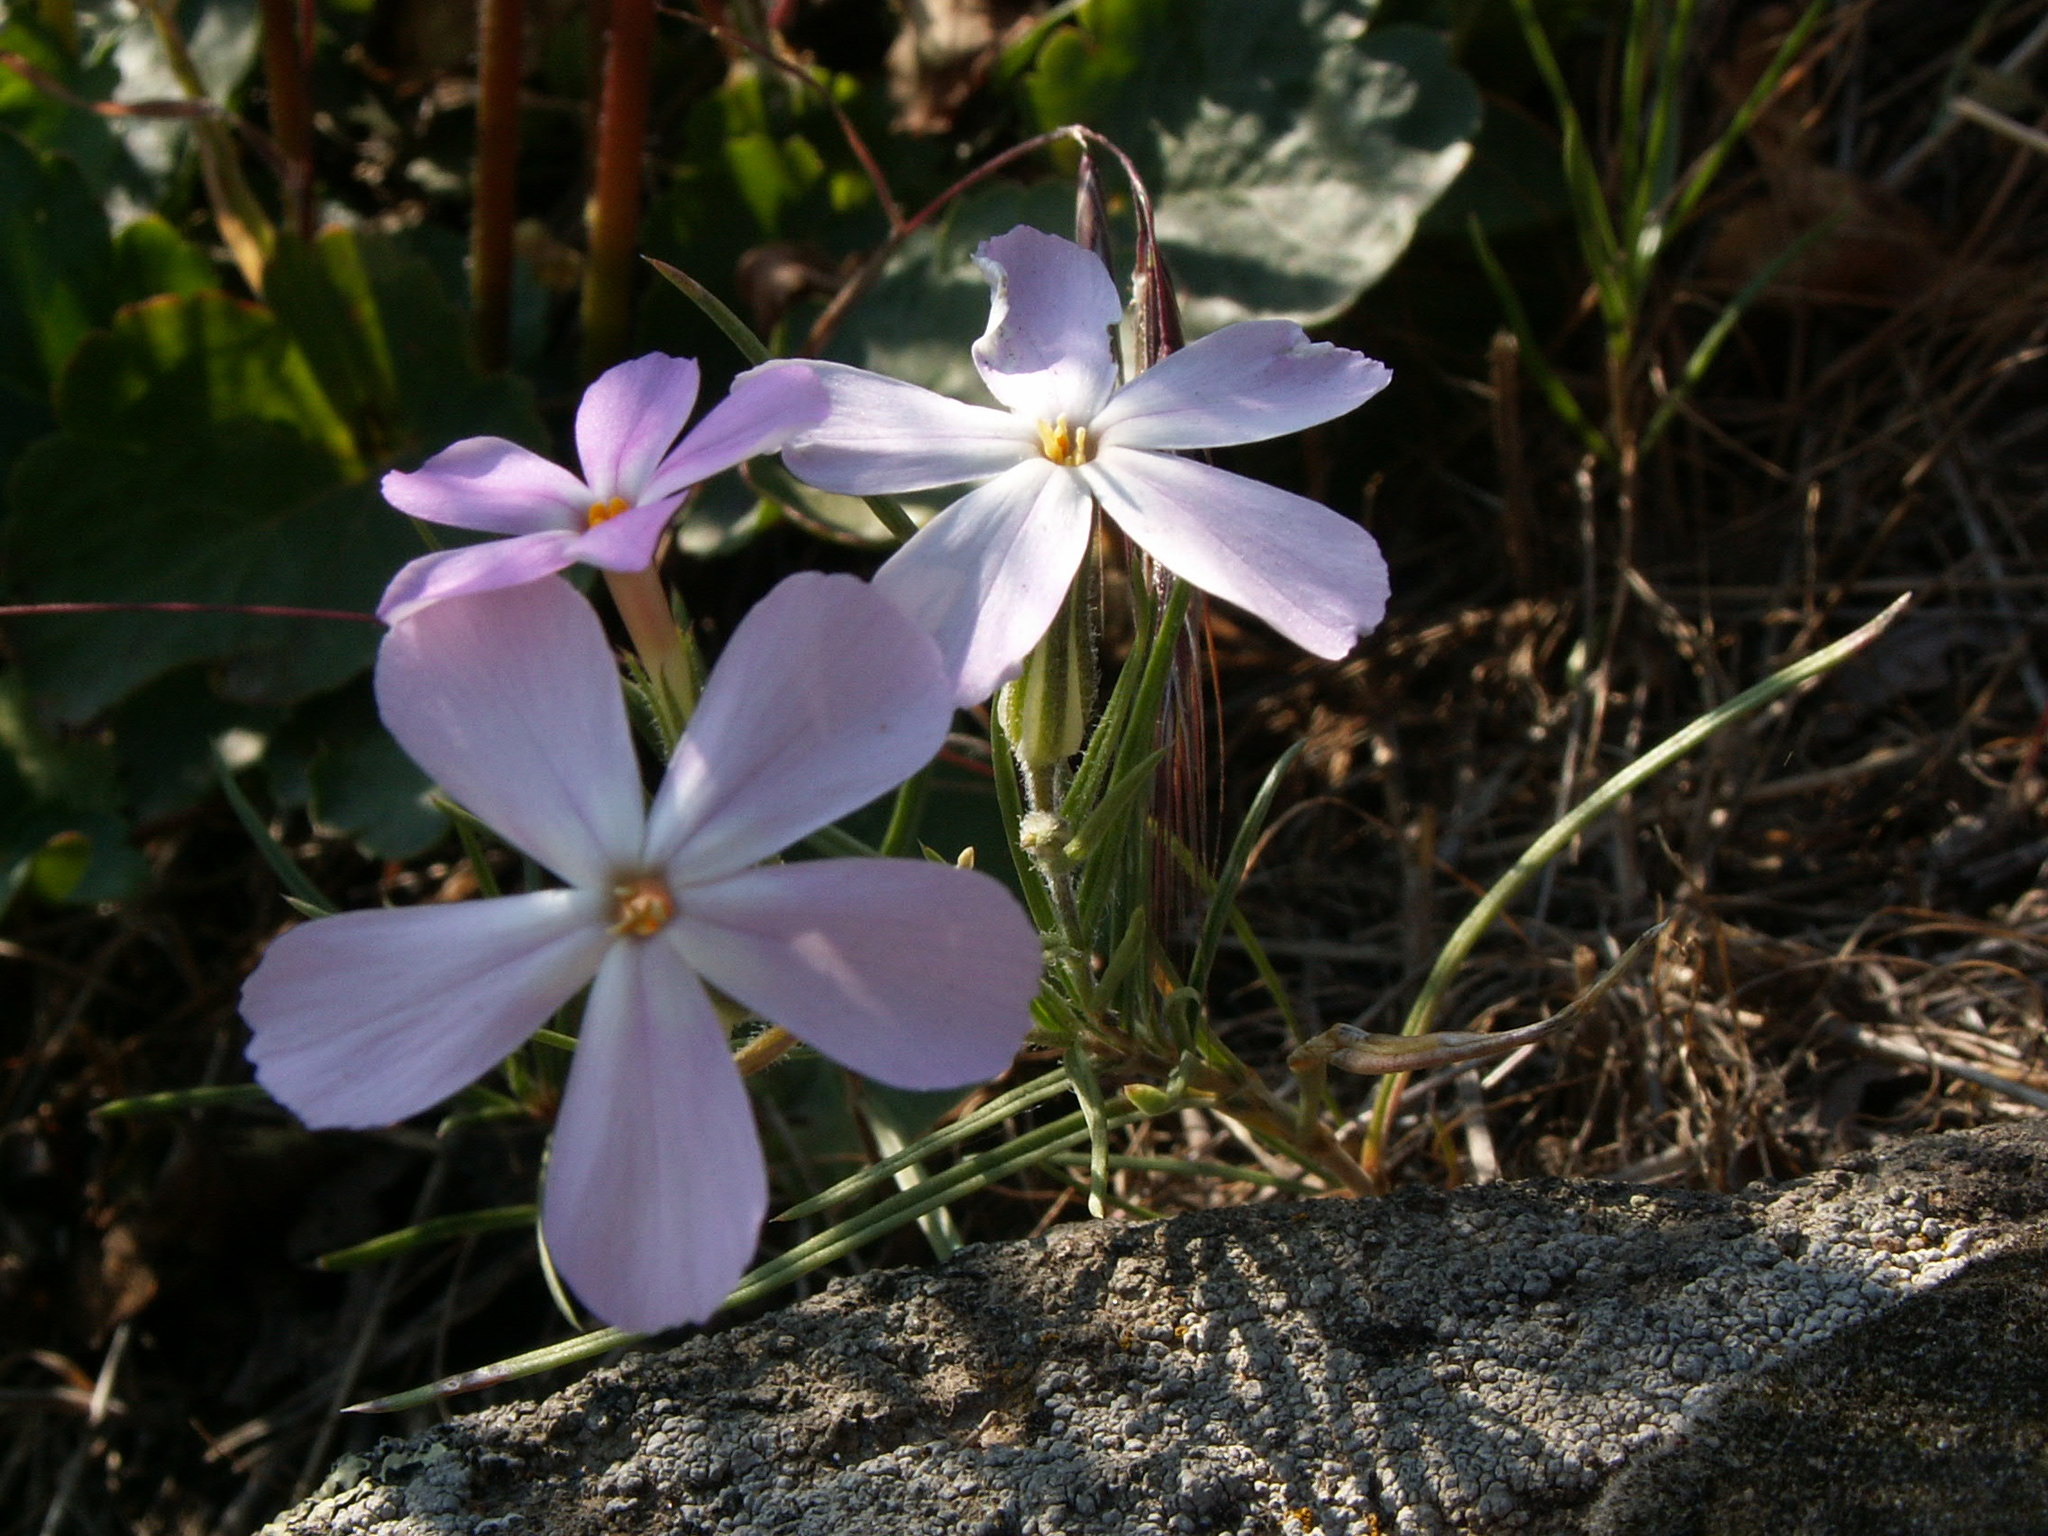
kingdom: Plantae
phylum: Tracheophyta
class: Magnoliopsida
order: Ericales
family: Polemoniaceae
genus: Phlox
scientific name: Phlox longifolia
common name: Longleaf phlox
